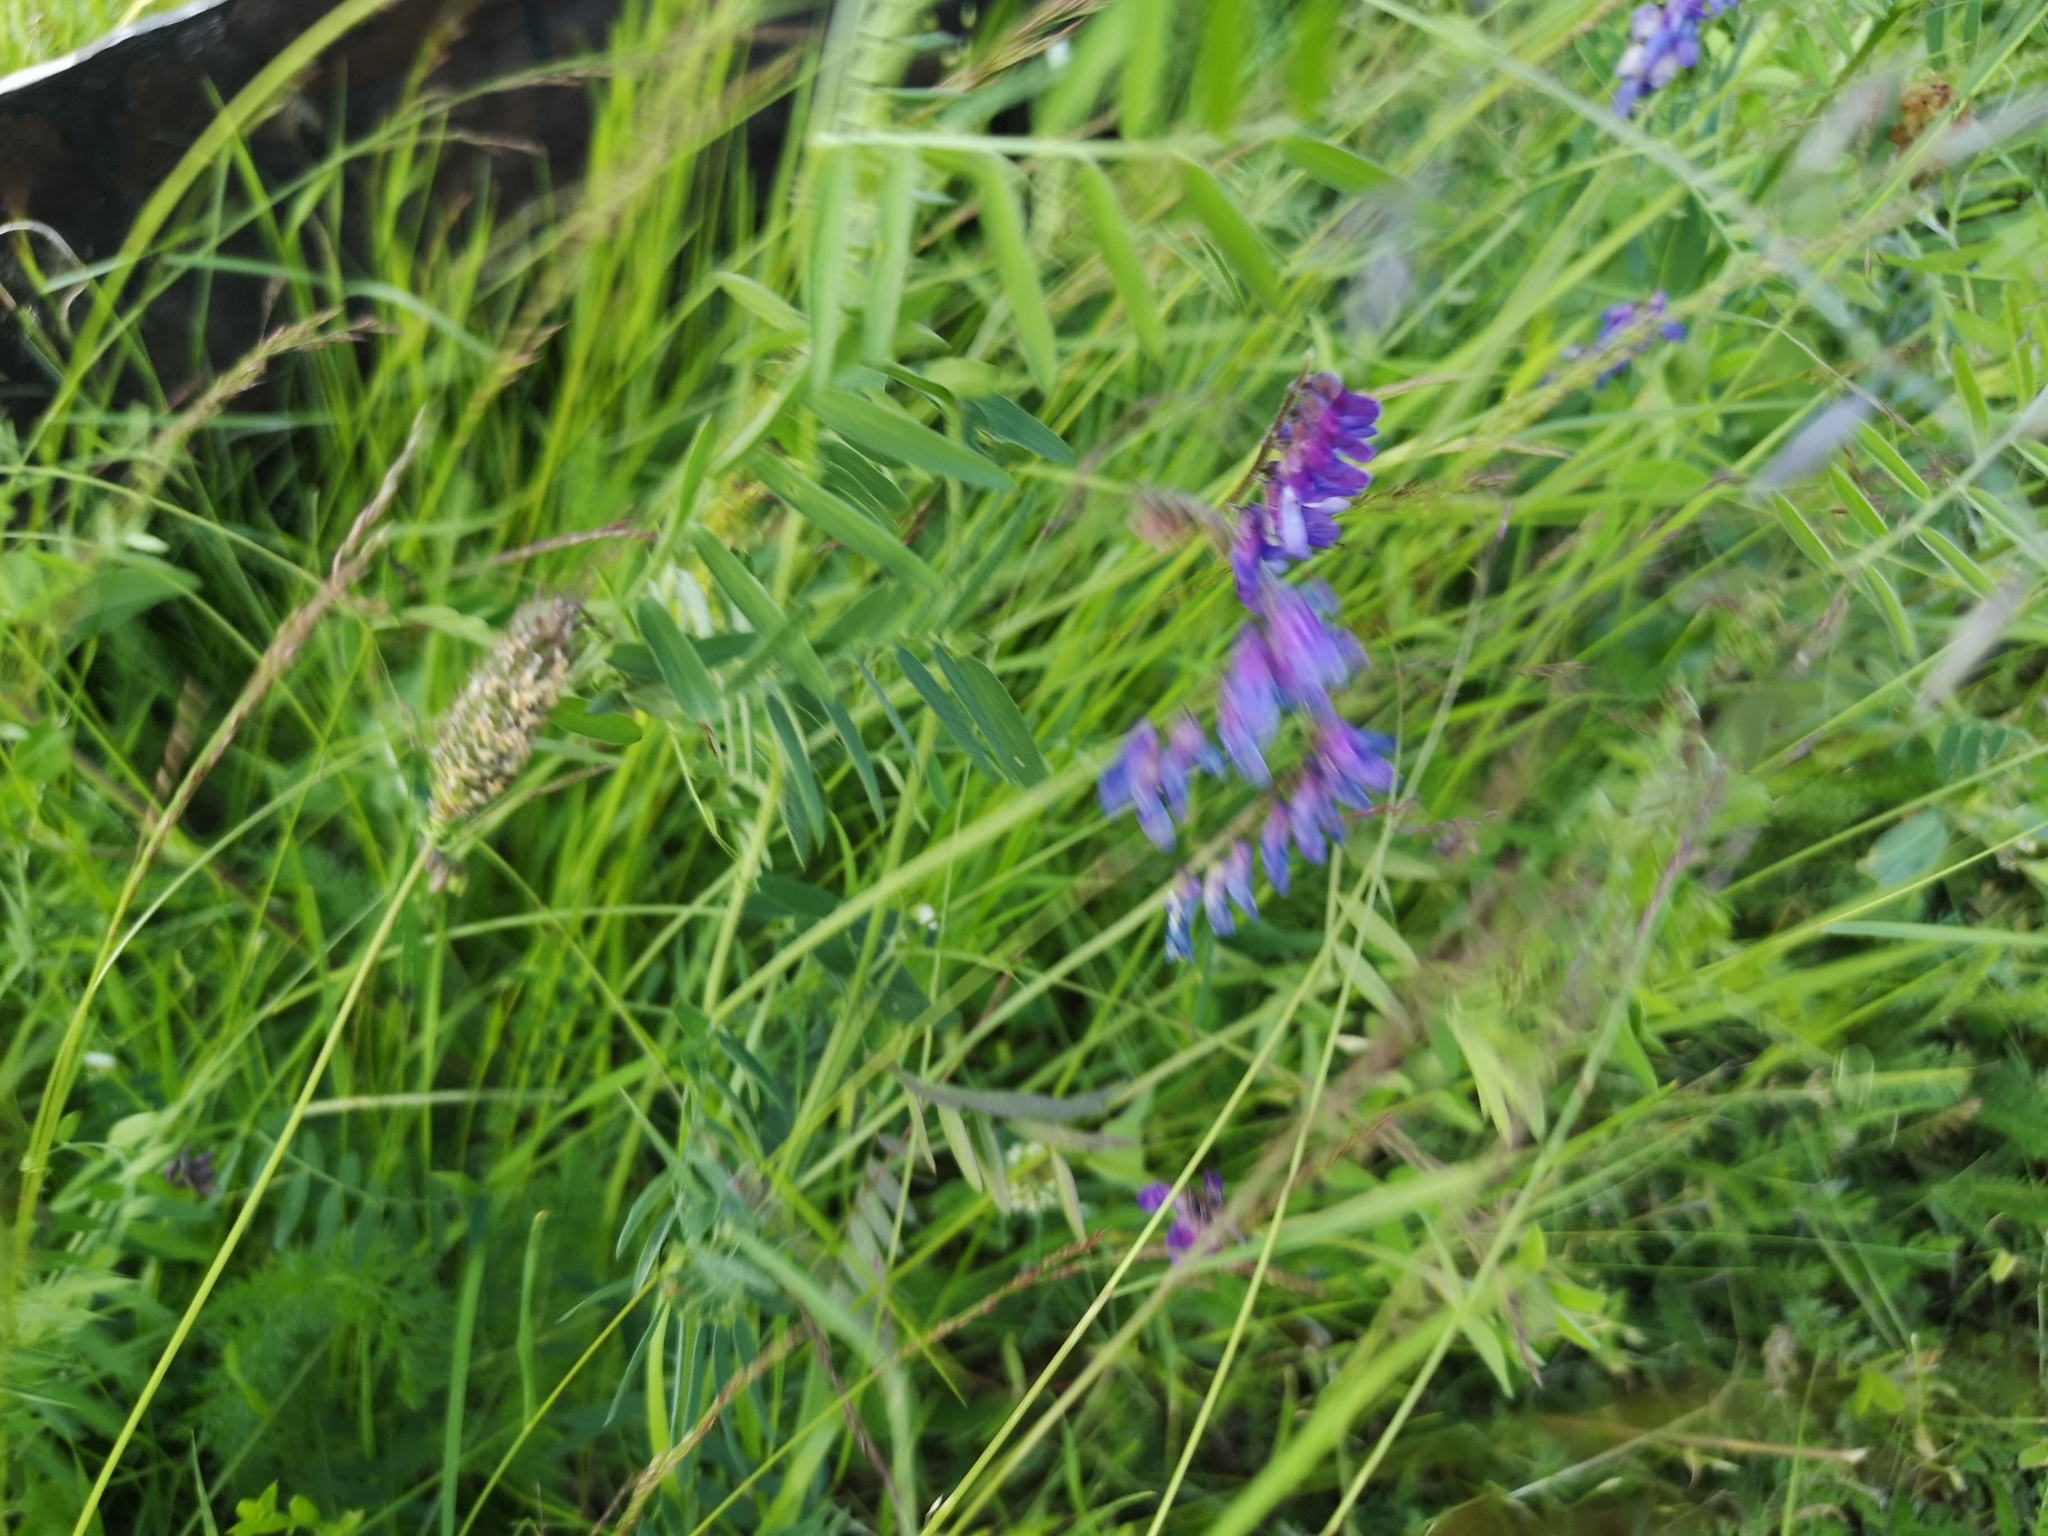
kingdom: Plantae
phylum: Tracheophyta
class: Magnoliopsida
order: Fabales
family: Fabaceae
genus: Vicia
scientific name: Vicia cracca
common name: Bird vetch
